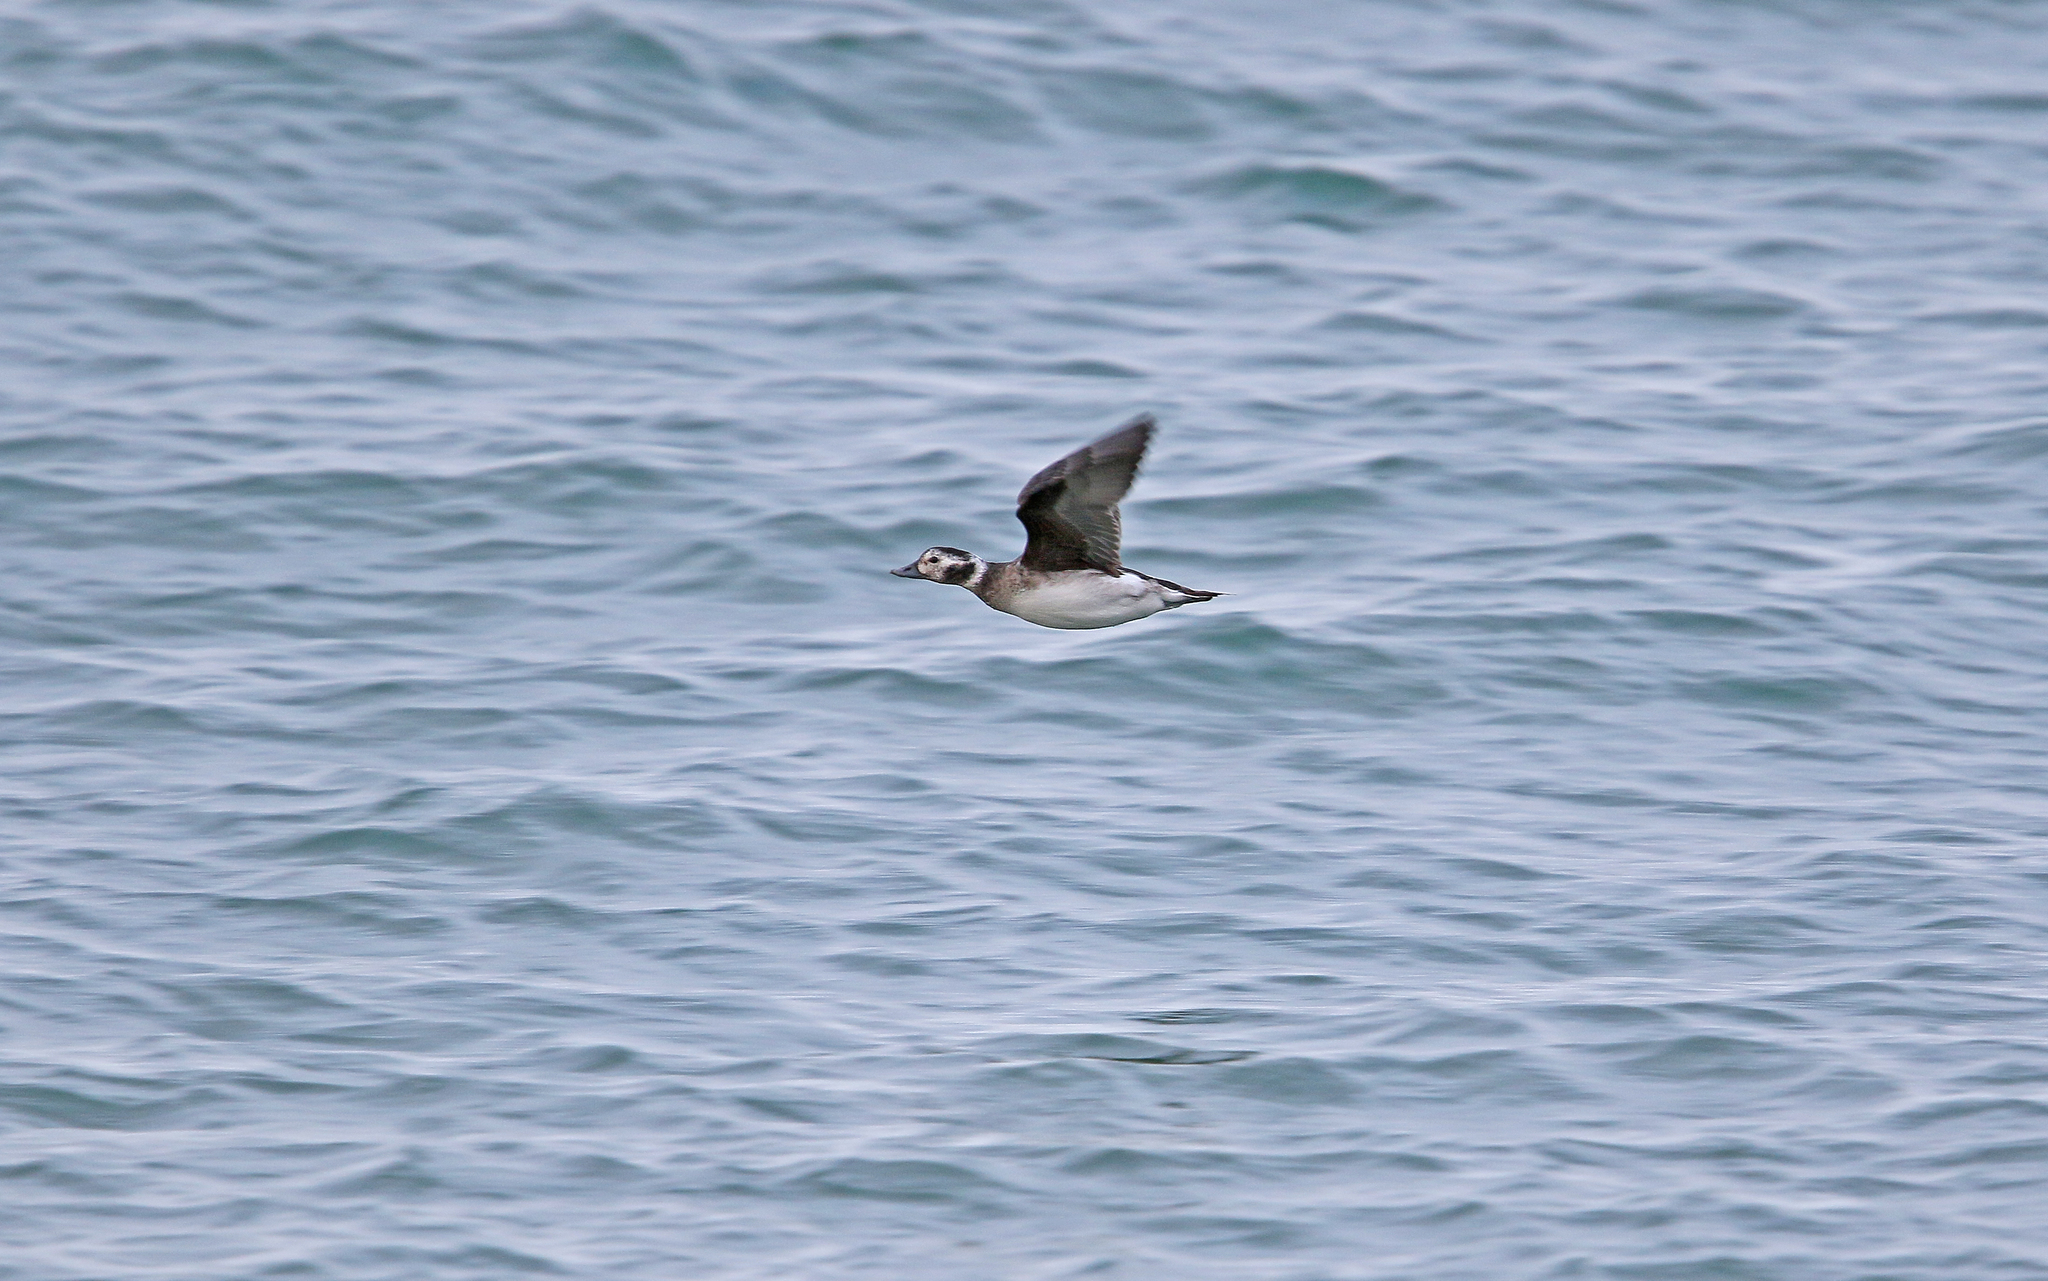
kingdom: Animalia
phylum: Chordata
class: Aves
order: Anseriformes
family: Anatidae
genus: Clangula
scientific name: Clangula hyemalis
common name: Long-tailed duck
